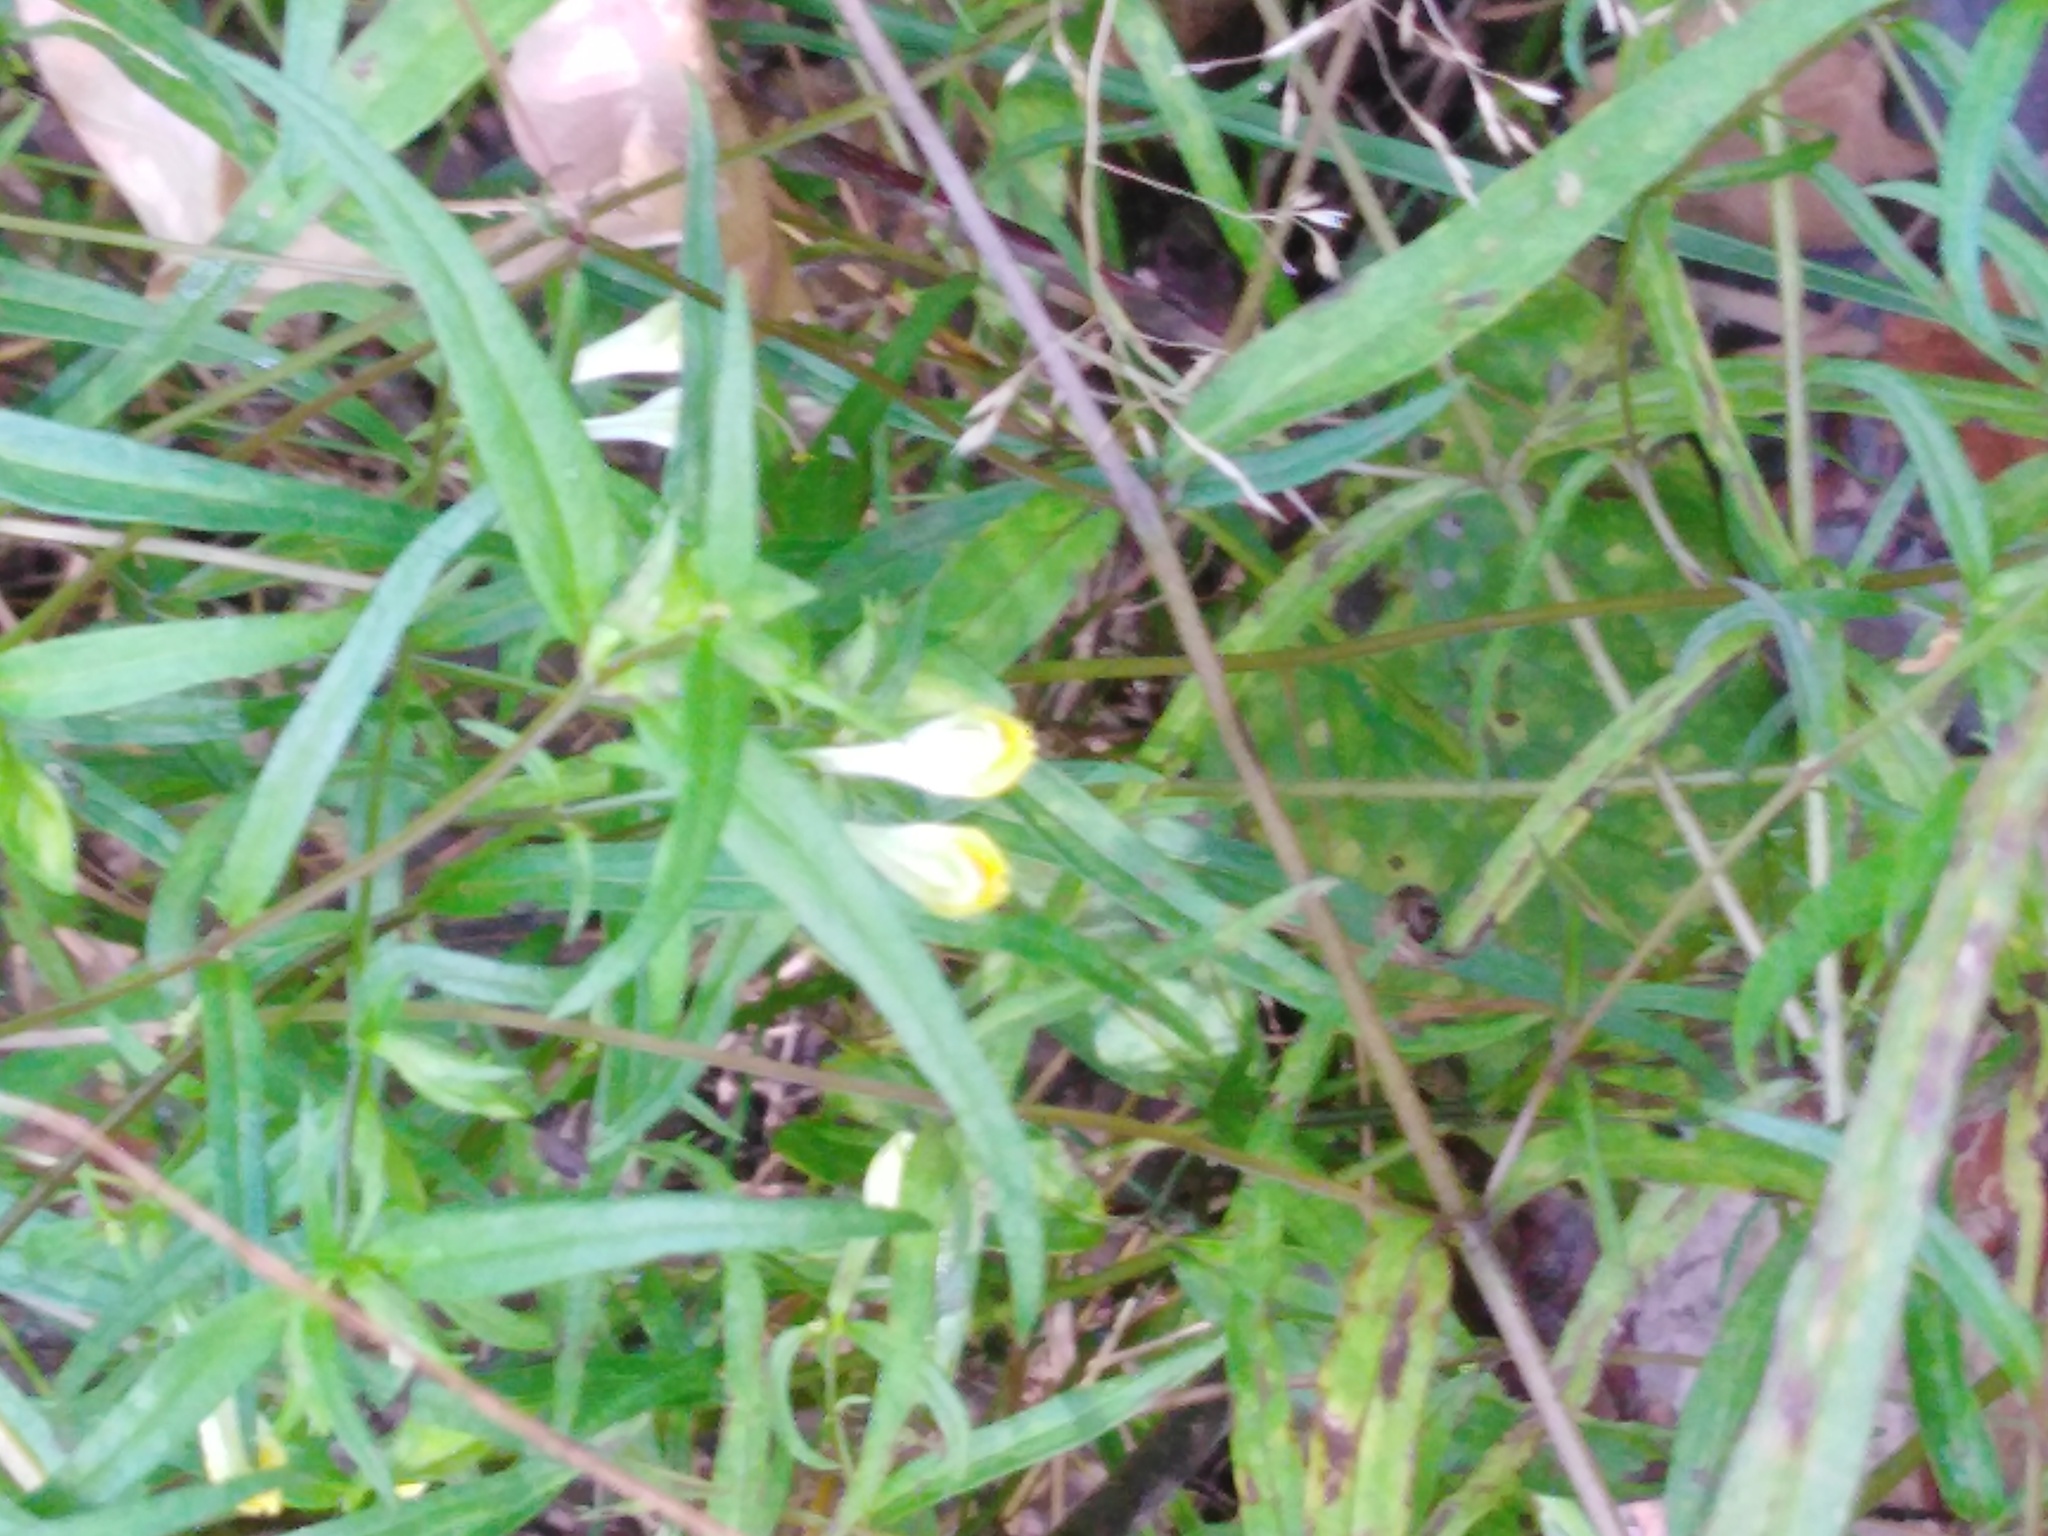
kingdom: Plantae
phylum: Tracheophyta
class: Magnoliopsida
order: Lamiales
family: Orobanchaceae
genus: Melampyrum
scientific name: Melampyrum pratense
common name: Common cow-wheat
